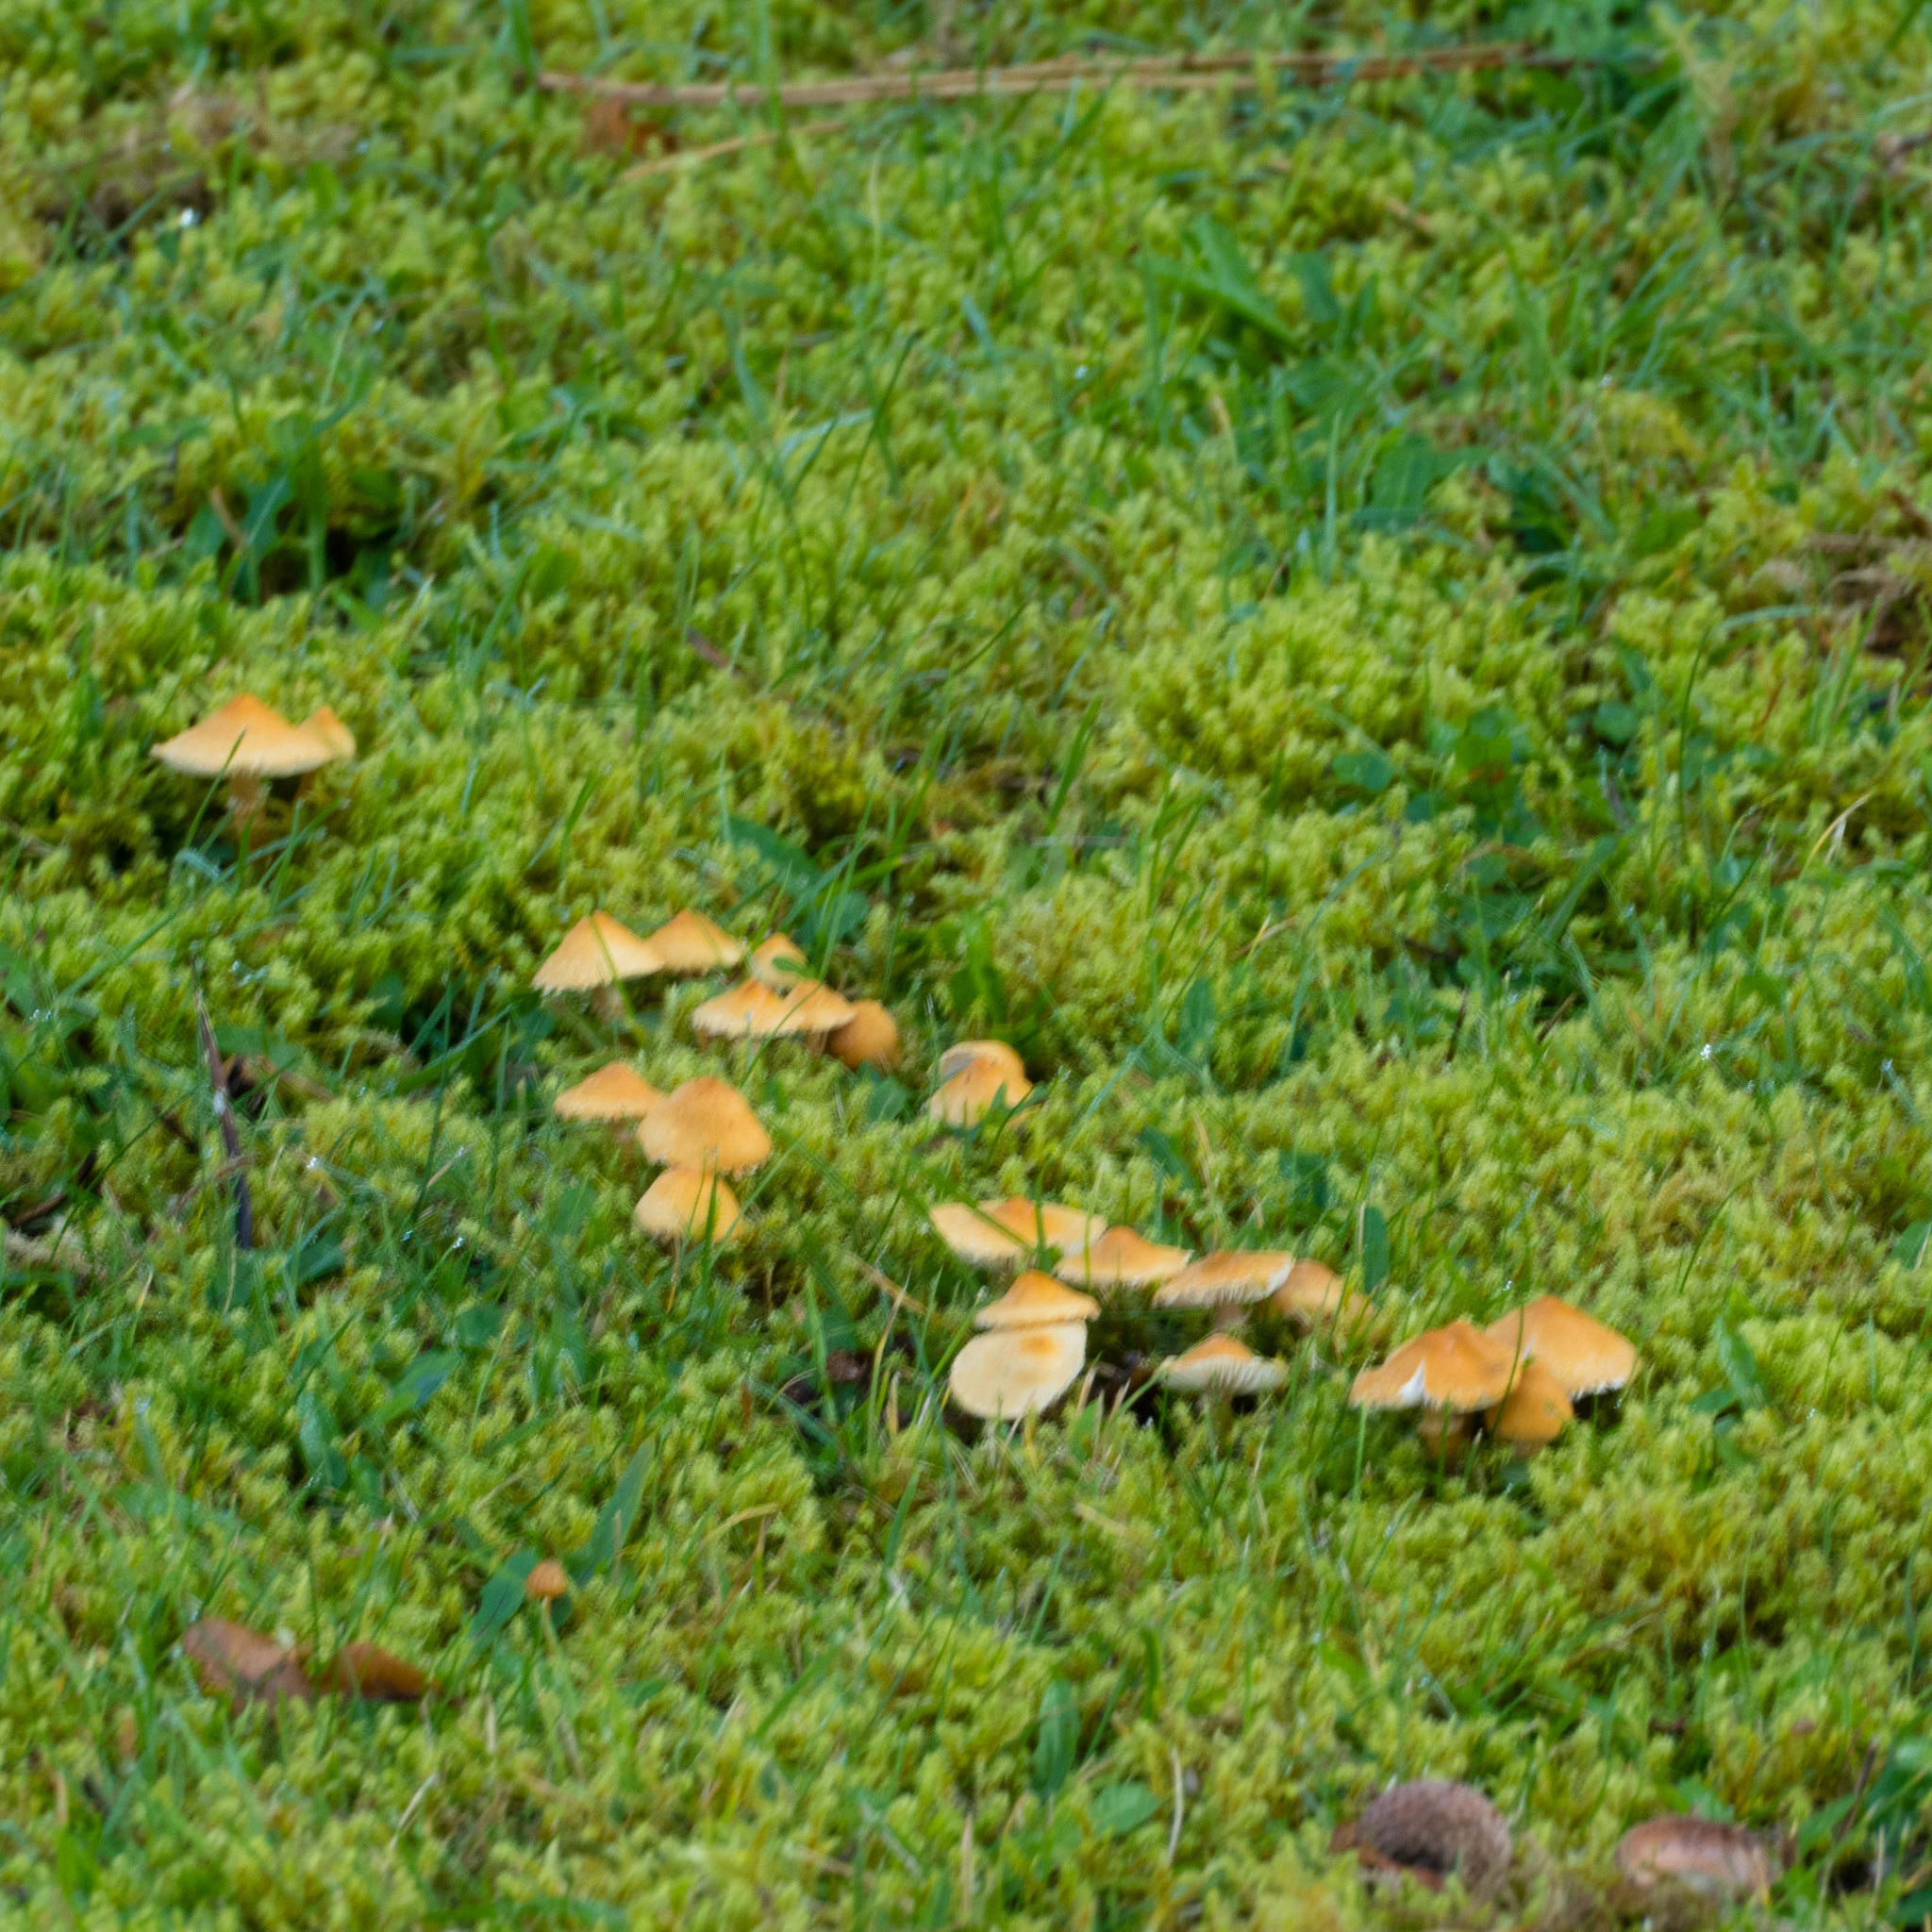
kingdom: Fungi
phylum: Basidiomycota
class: Agaricomycetes
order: Agaricales
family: Tricholomataceae
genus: Cystoderma
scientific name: Cystoderma amianthinum
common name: Earthy powdercap
